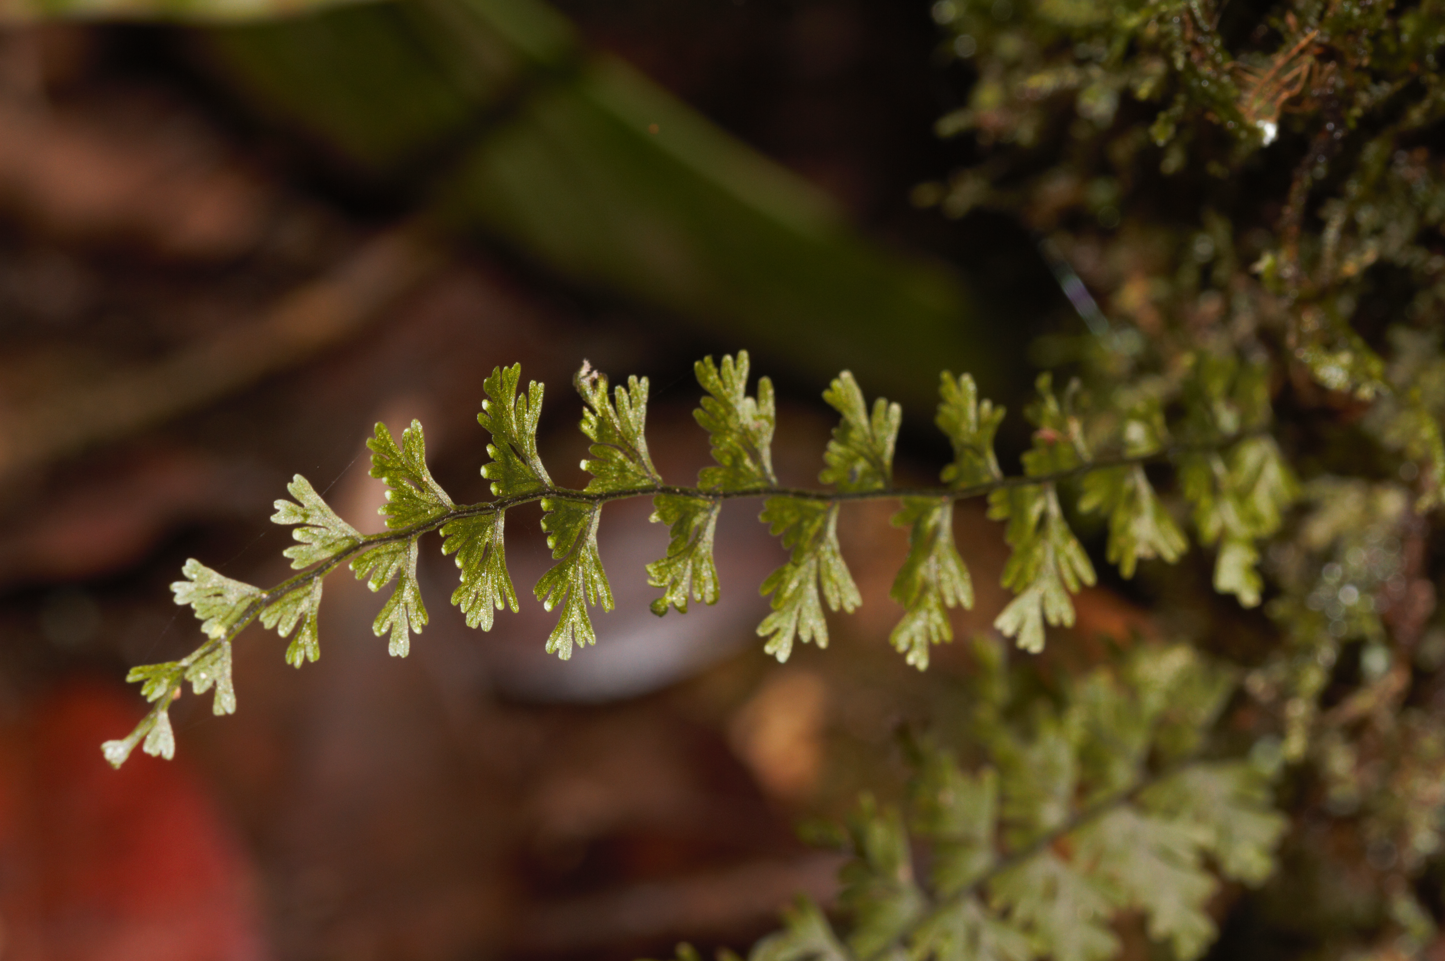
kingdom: Plantae
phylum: Tracheophyta
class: Polypodiopsida
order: Hymenophyllales
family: Hymenophyllaceae
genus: Hymenophyllum
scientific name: Hymenophyllum protrusum
